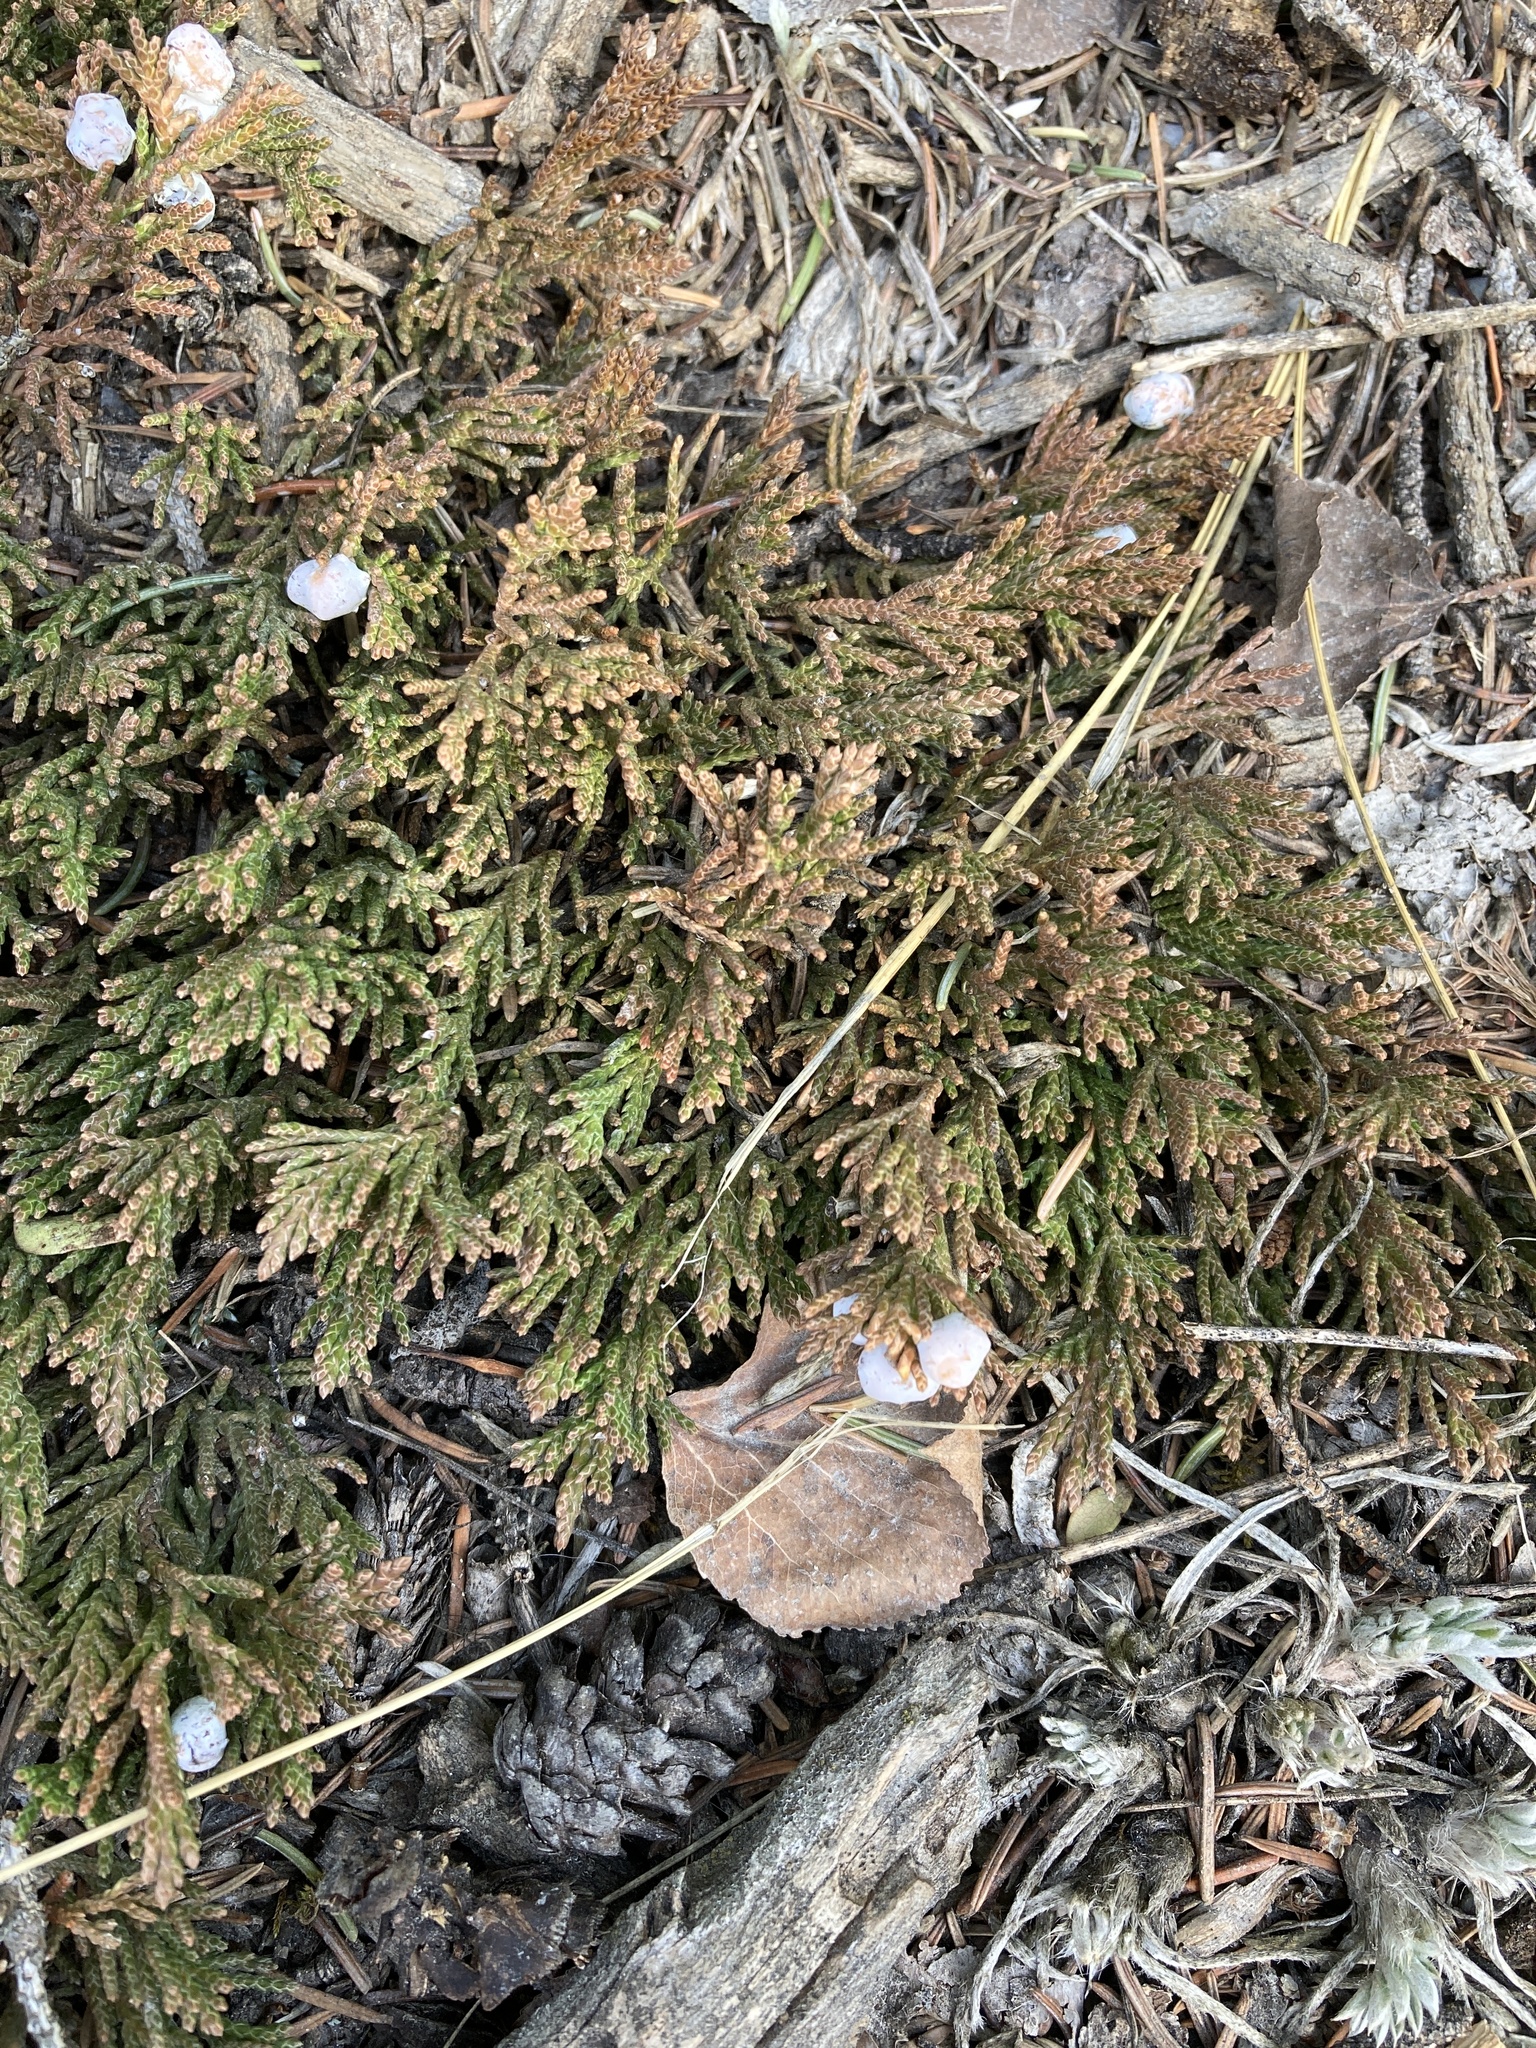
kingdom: Plantae
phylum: Tracheophyta
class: Pinopsida
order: Pinales
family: Cupressaceae
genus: Juniperus
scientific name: Juniperus horizontalis
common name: Creeping juniper
